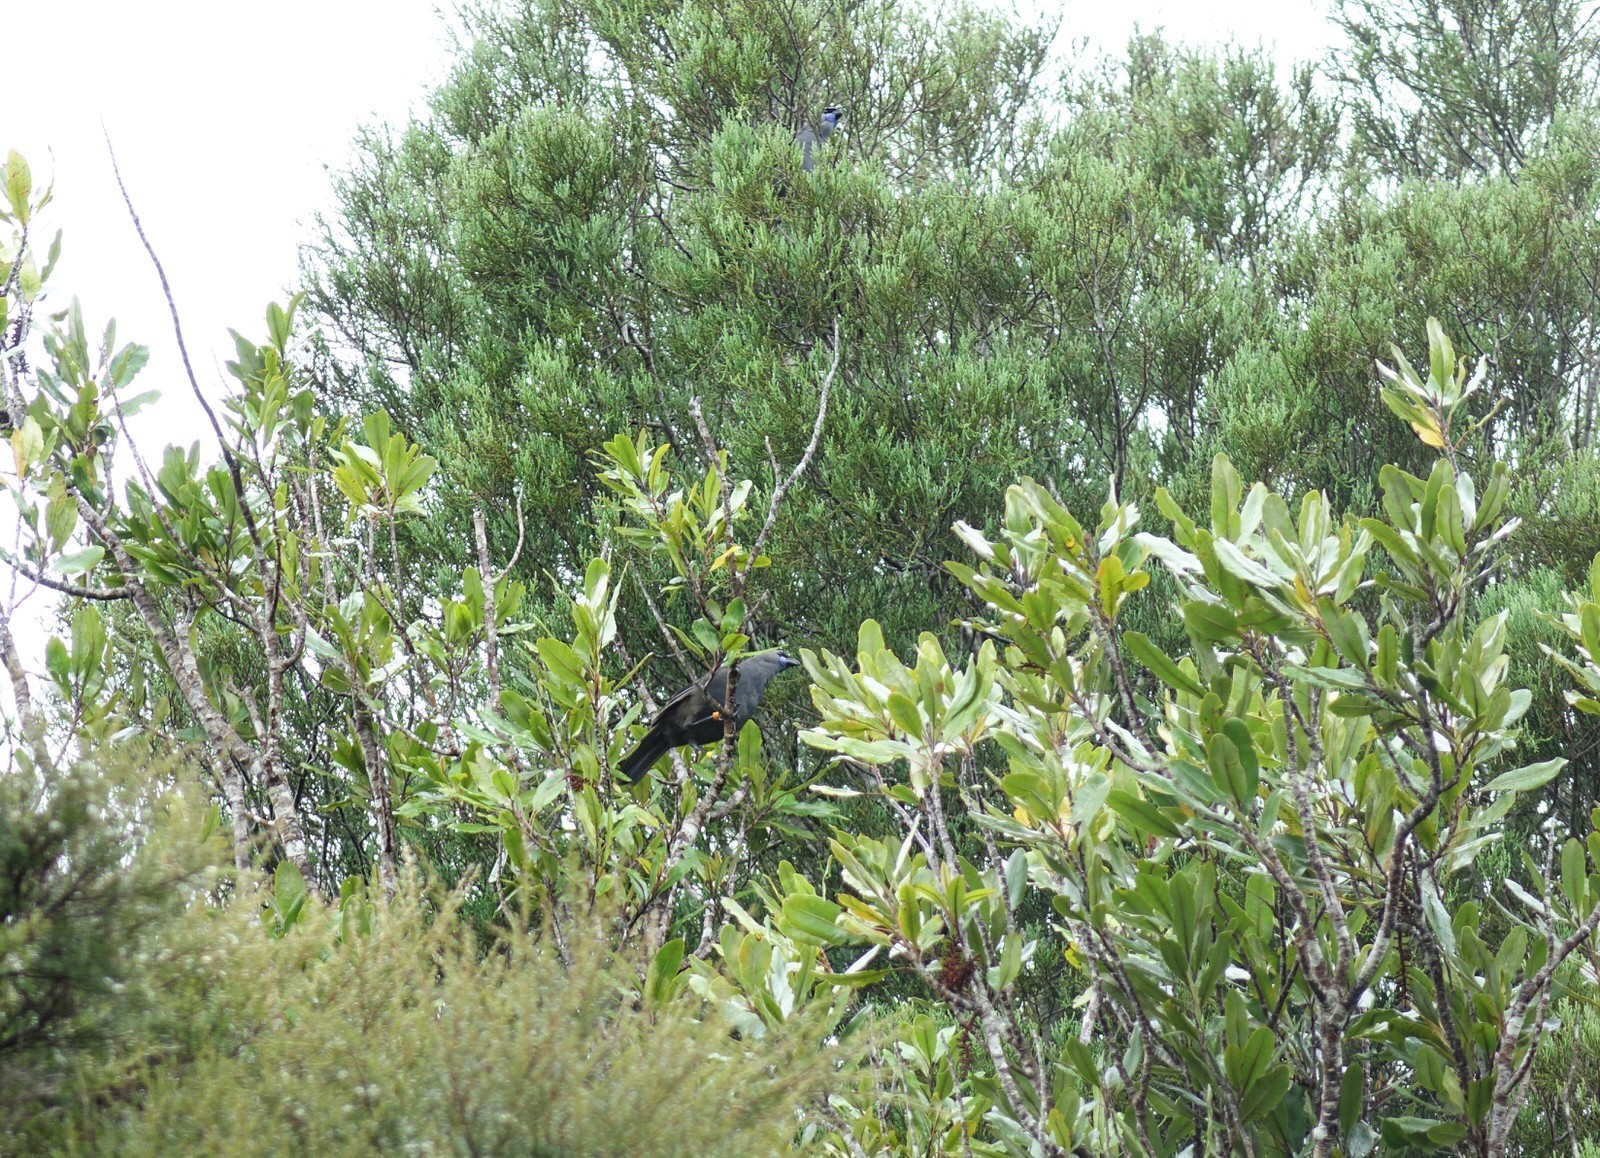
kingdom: Animalia
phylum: Chordata
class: Aves
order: Passeriformes
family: Callaeatidae
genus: Callaeas
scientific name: Callaeas cinereus
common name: South island kokako
